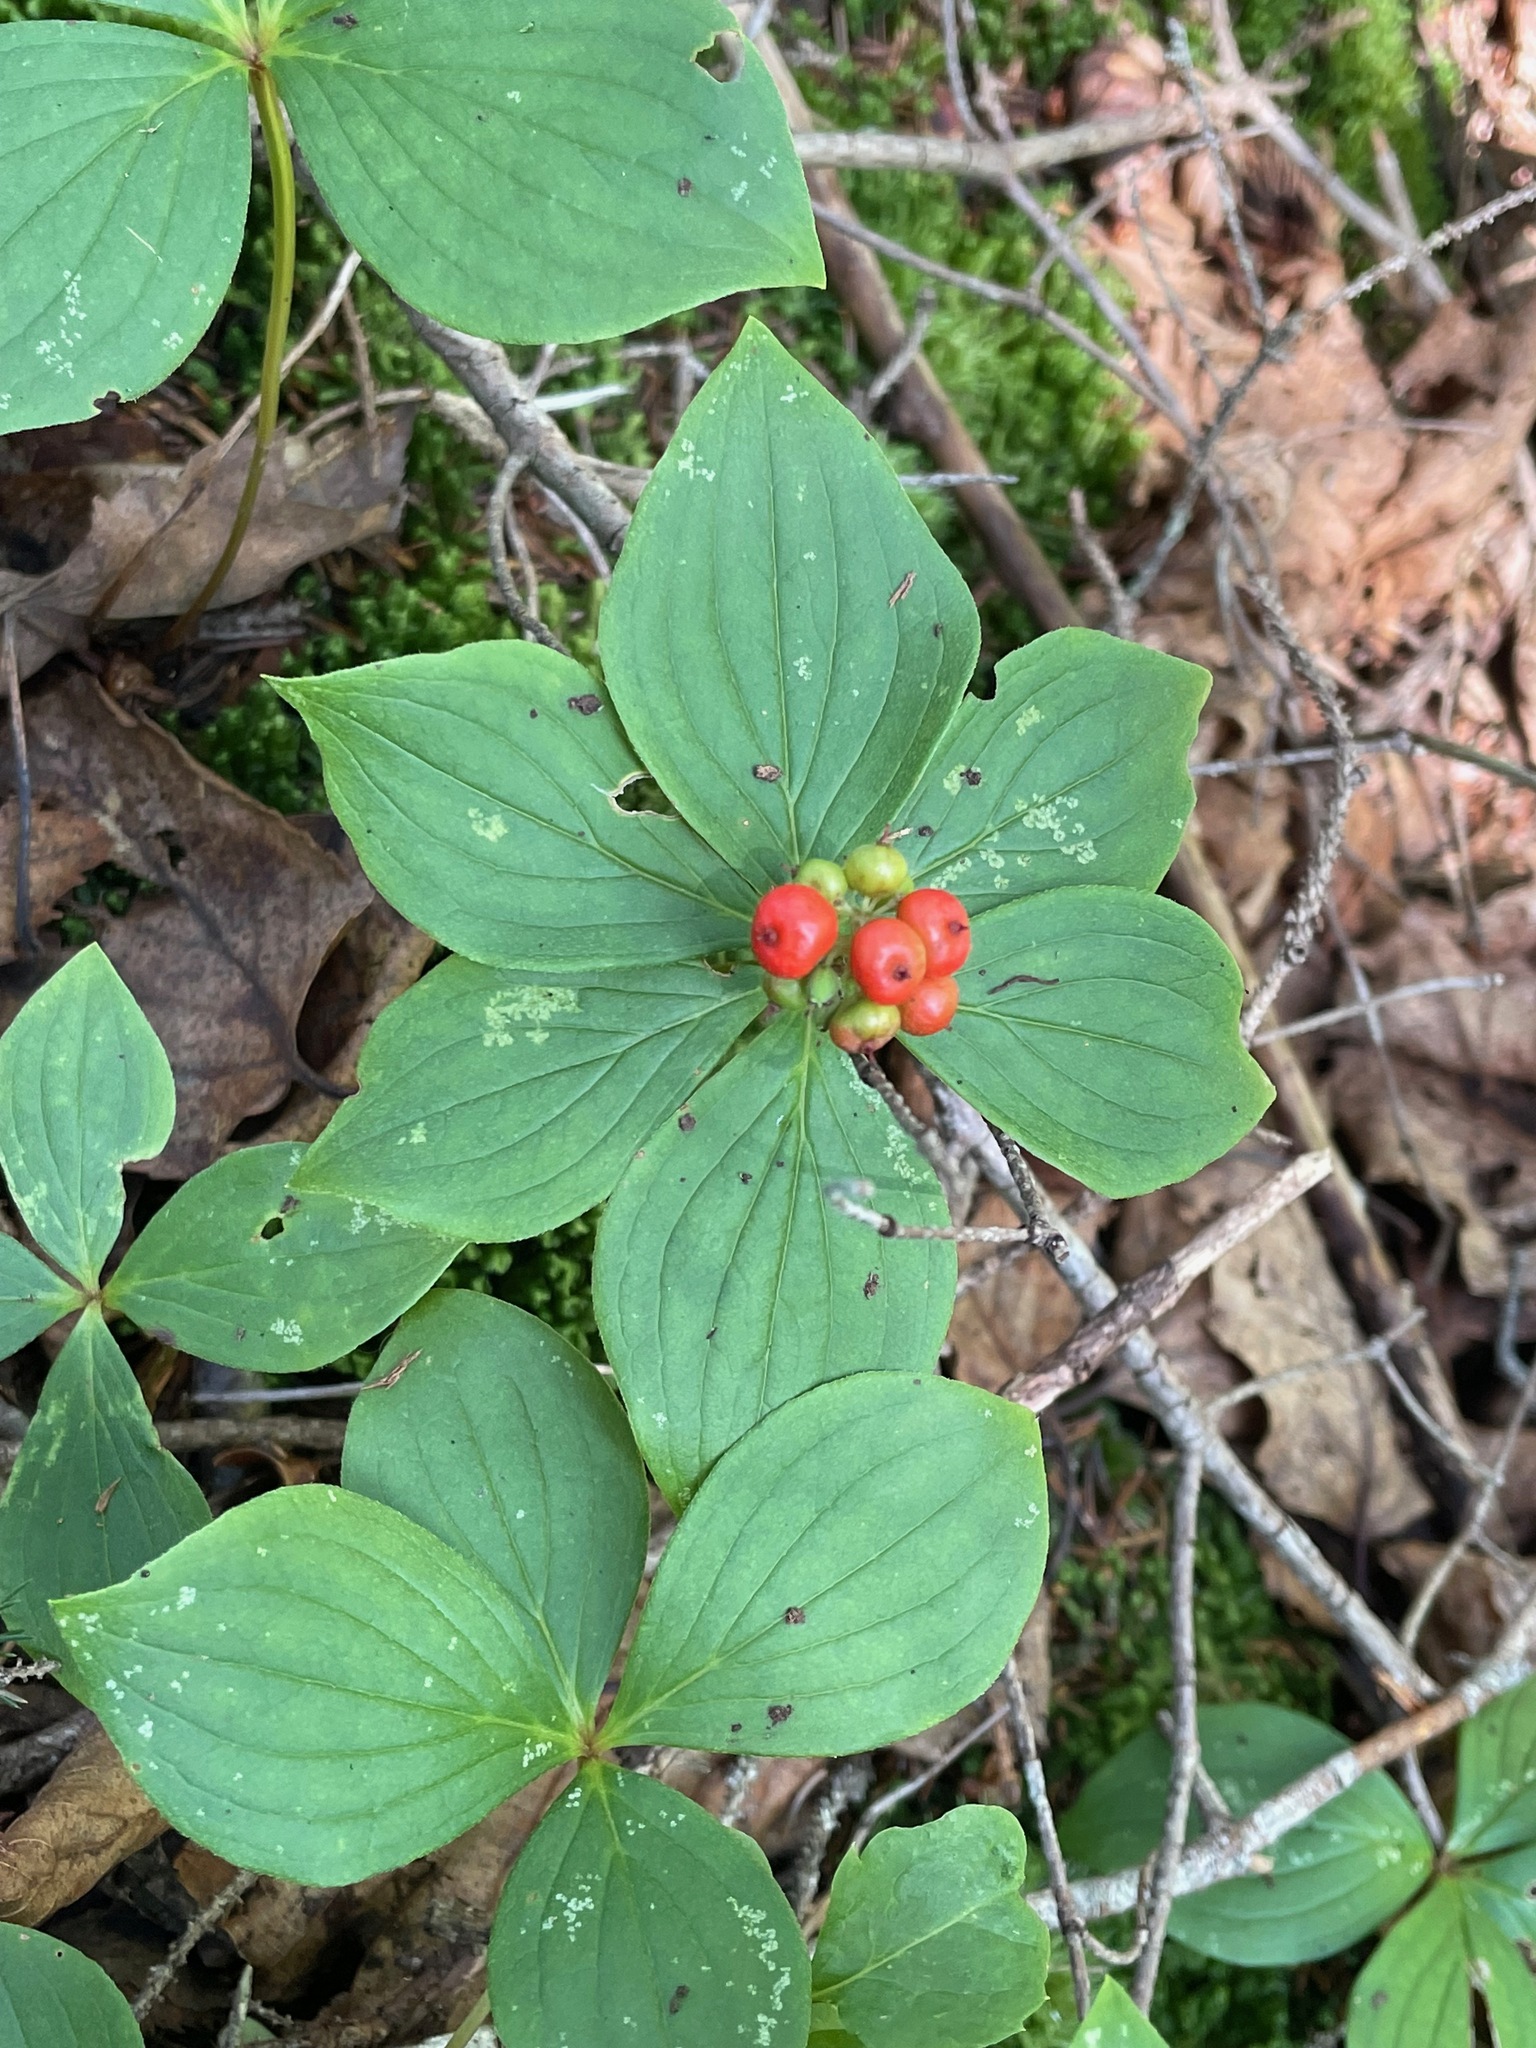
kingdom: Plantae
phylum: Tracheophyta
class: Magnoliopsida
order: Cornales
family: Cornaceae
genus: Cornus
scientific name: Cornus canadensis
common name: Creeping dogwood
